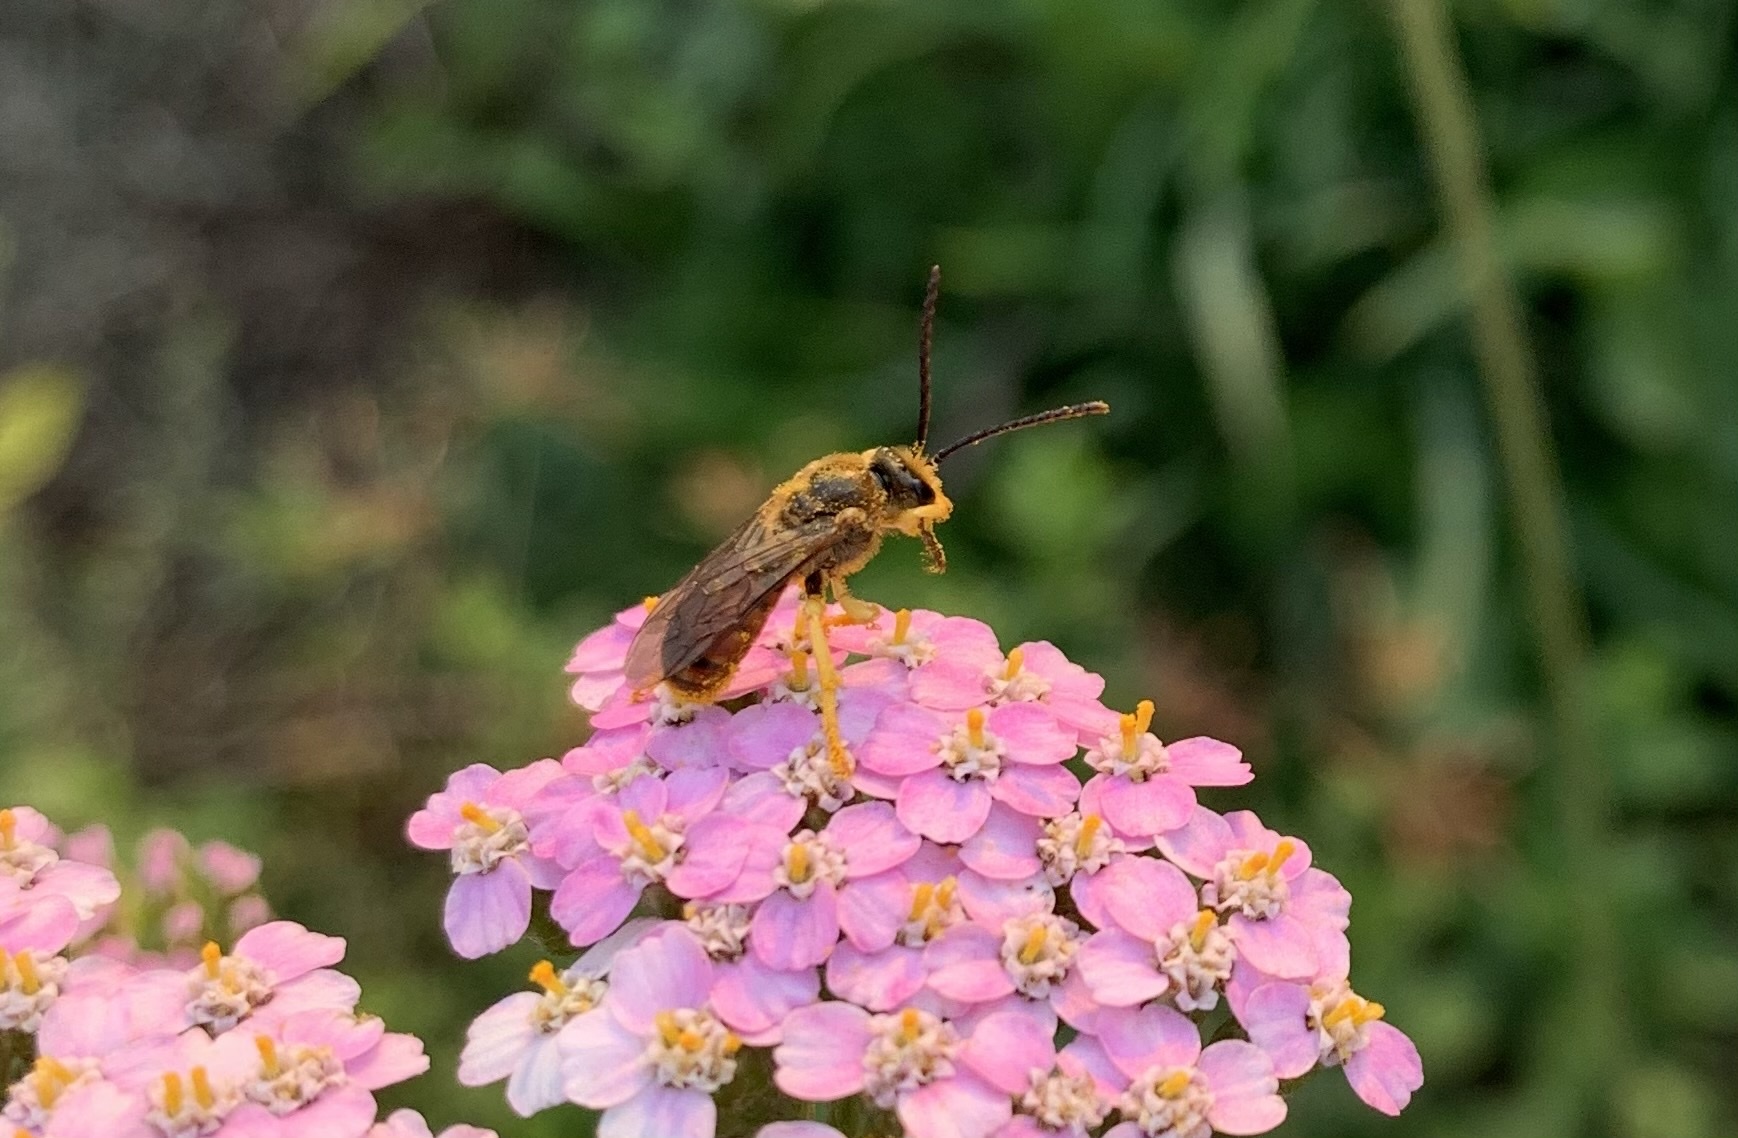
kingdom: Animalia
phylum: Arthropoda
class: Insecta
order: Hymenoptera
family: Halictidae
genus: Ruizantheda
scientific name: Ruizantheda proxima
